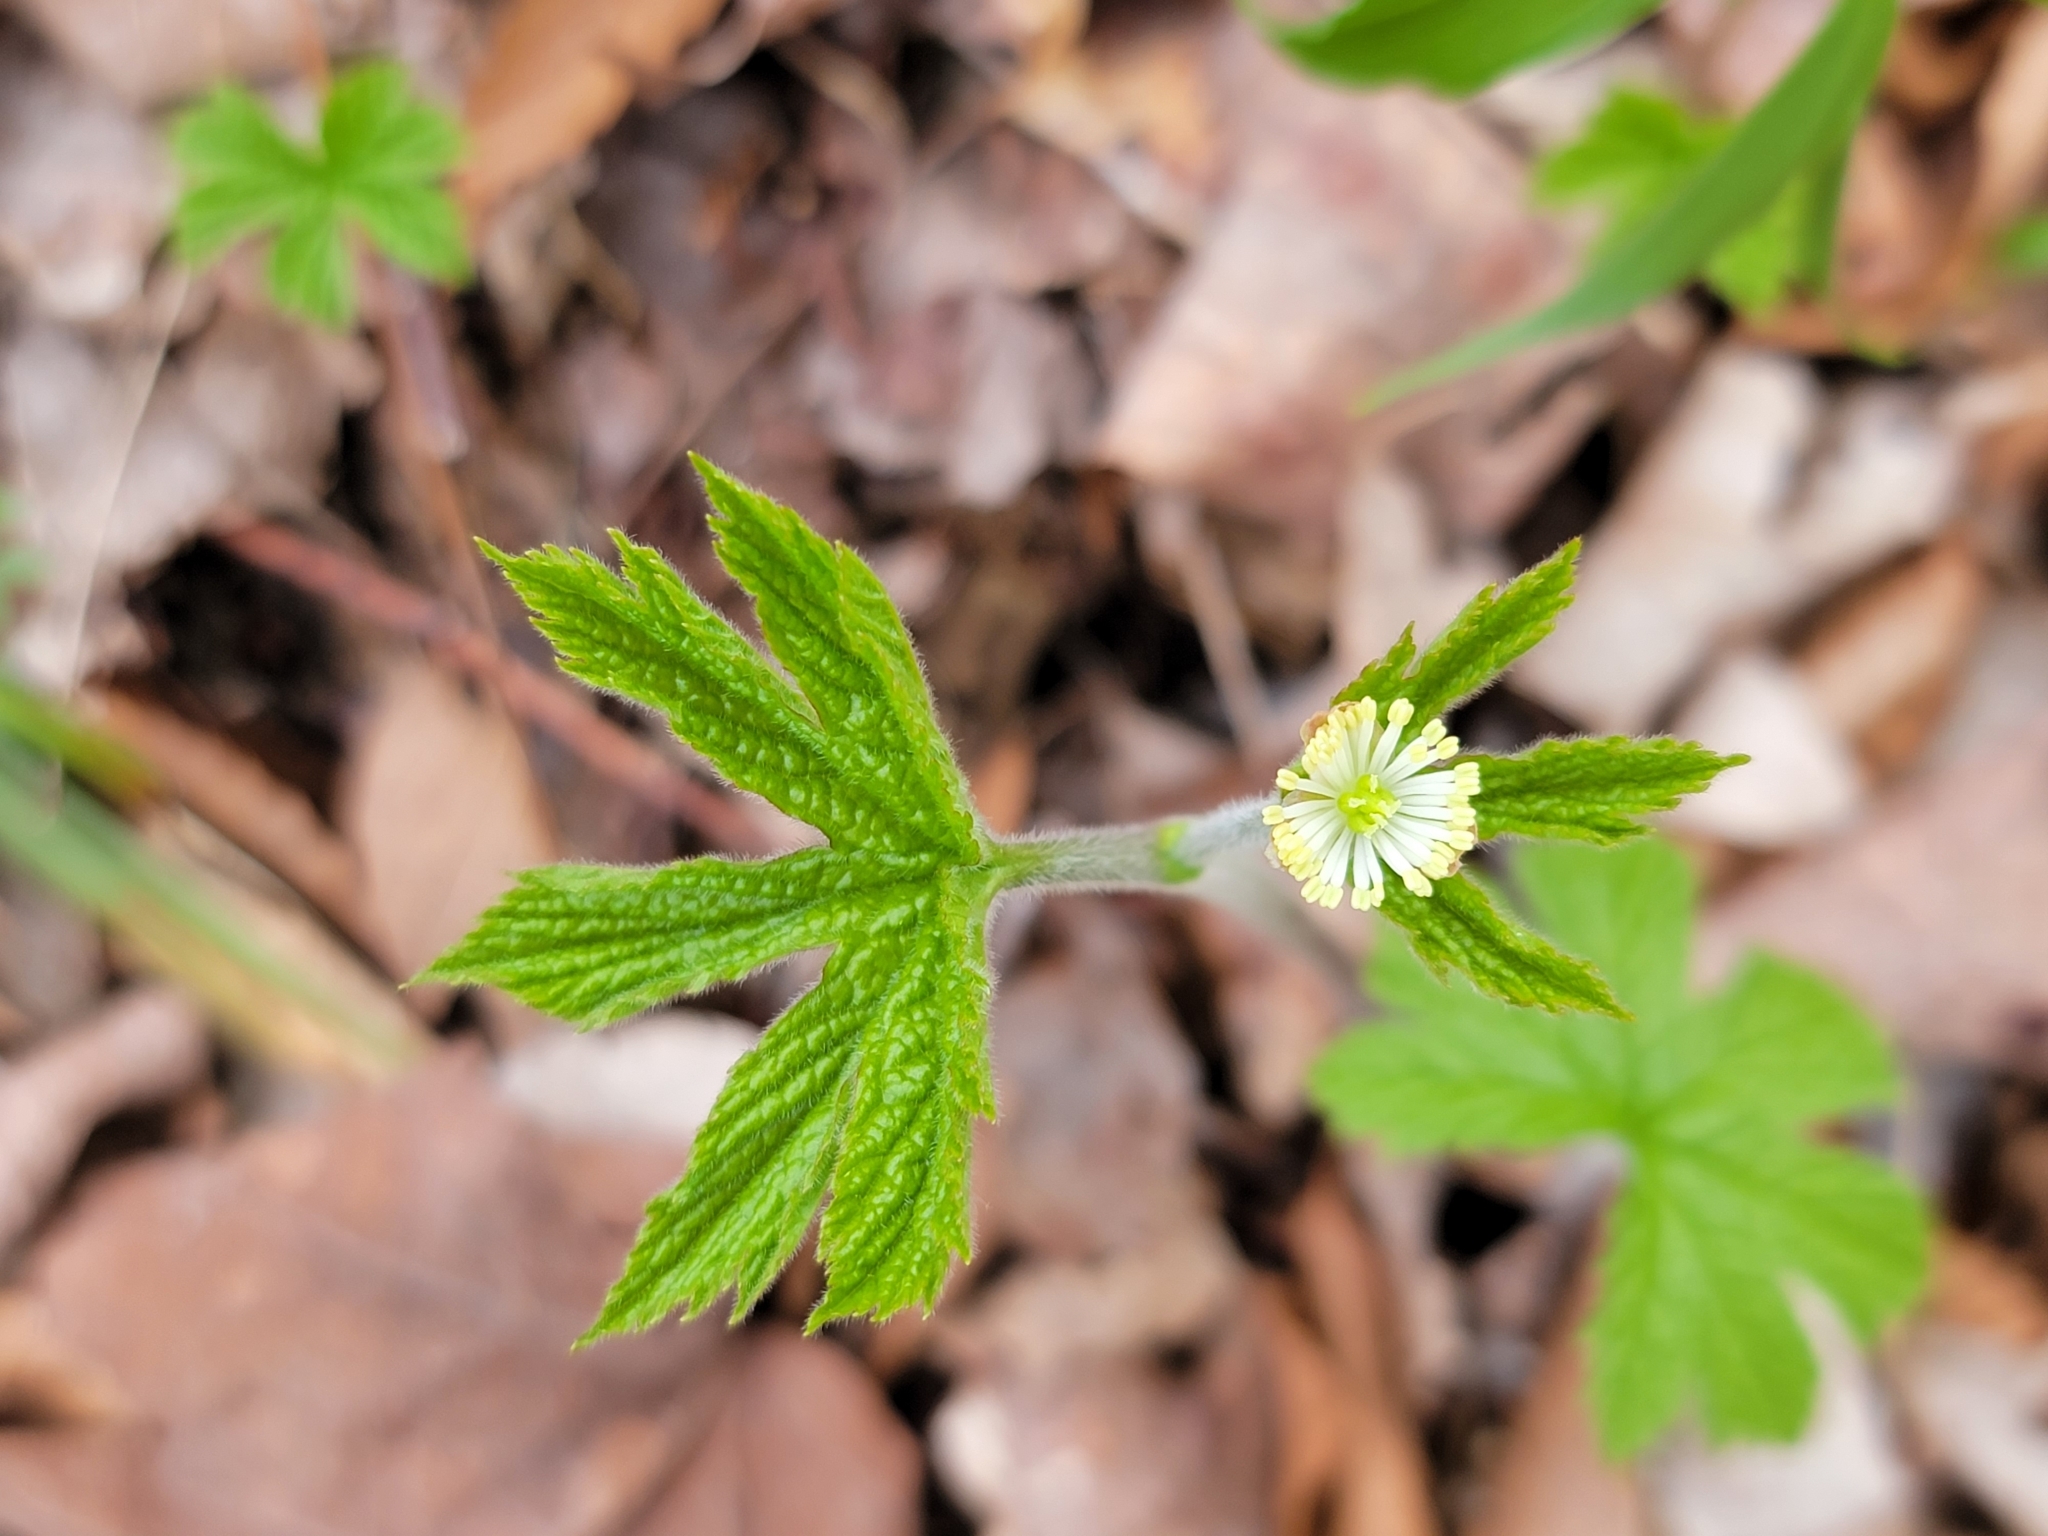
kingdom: Plantae
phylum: Tracheophyta
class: Magnoliopsida
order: Ranunculales
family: Ranunculaceae
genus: Hydrastis
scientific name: Hydrastis canadensis
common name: Goldenseal
